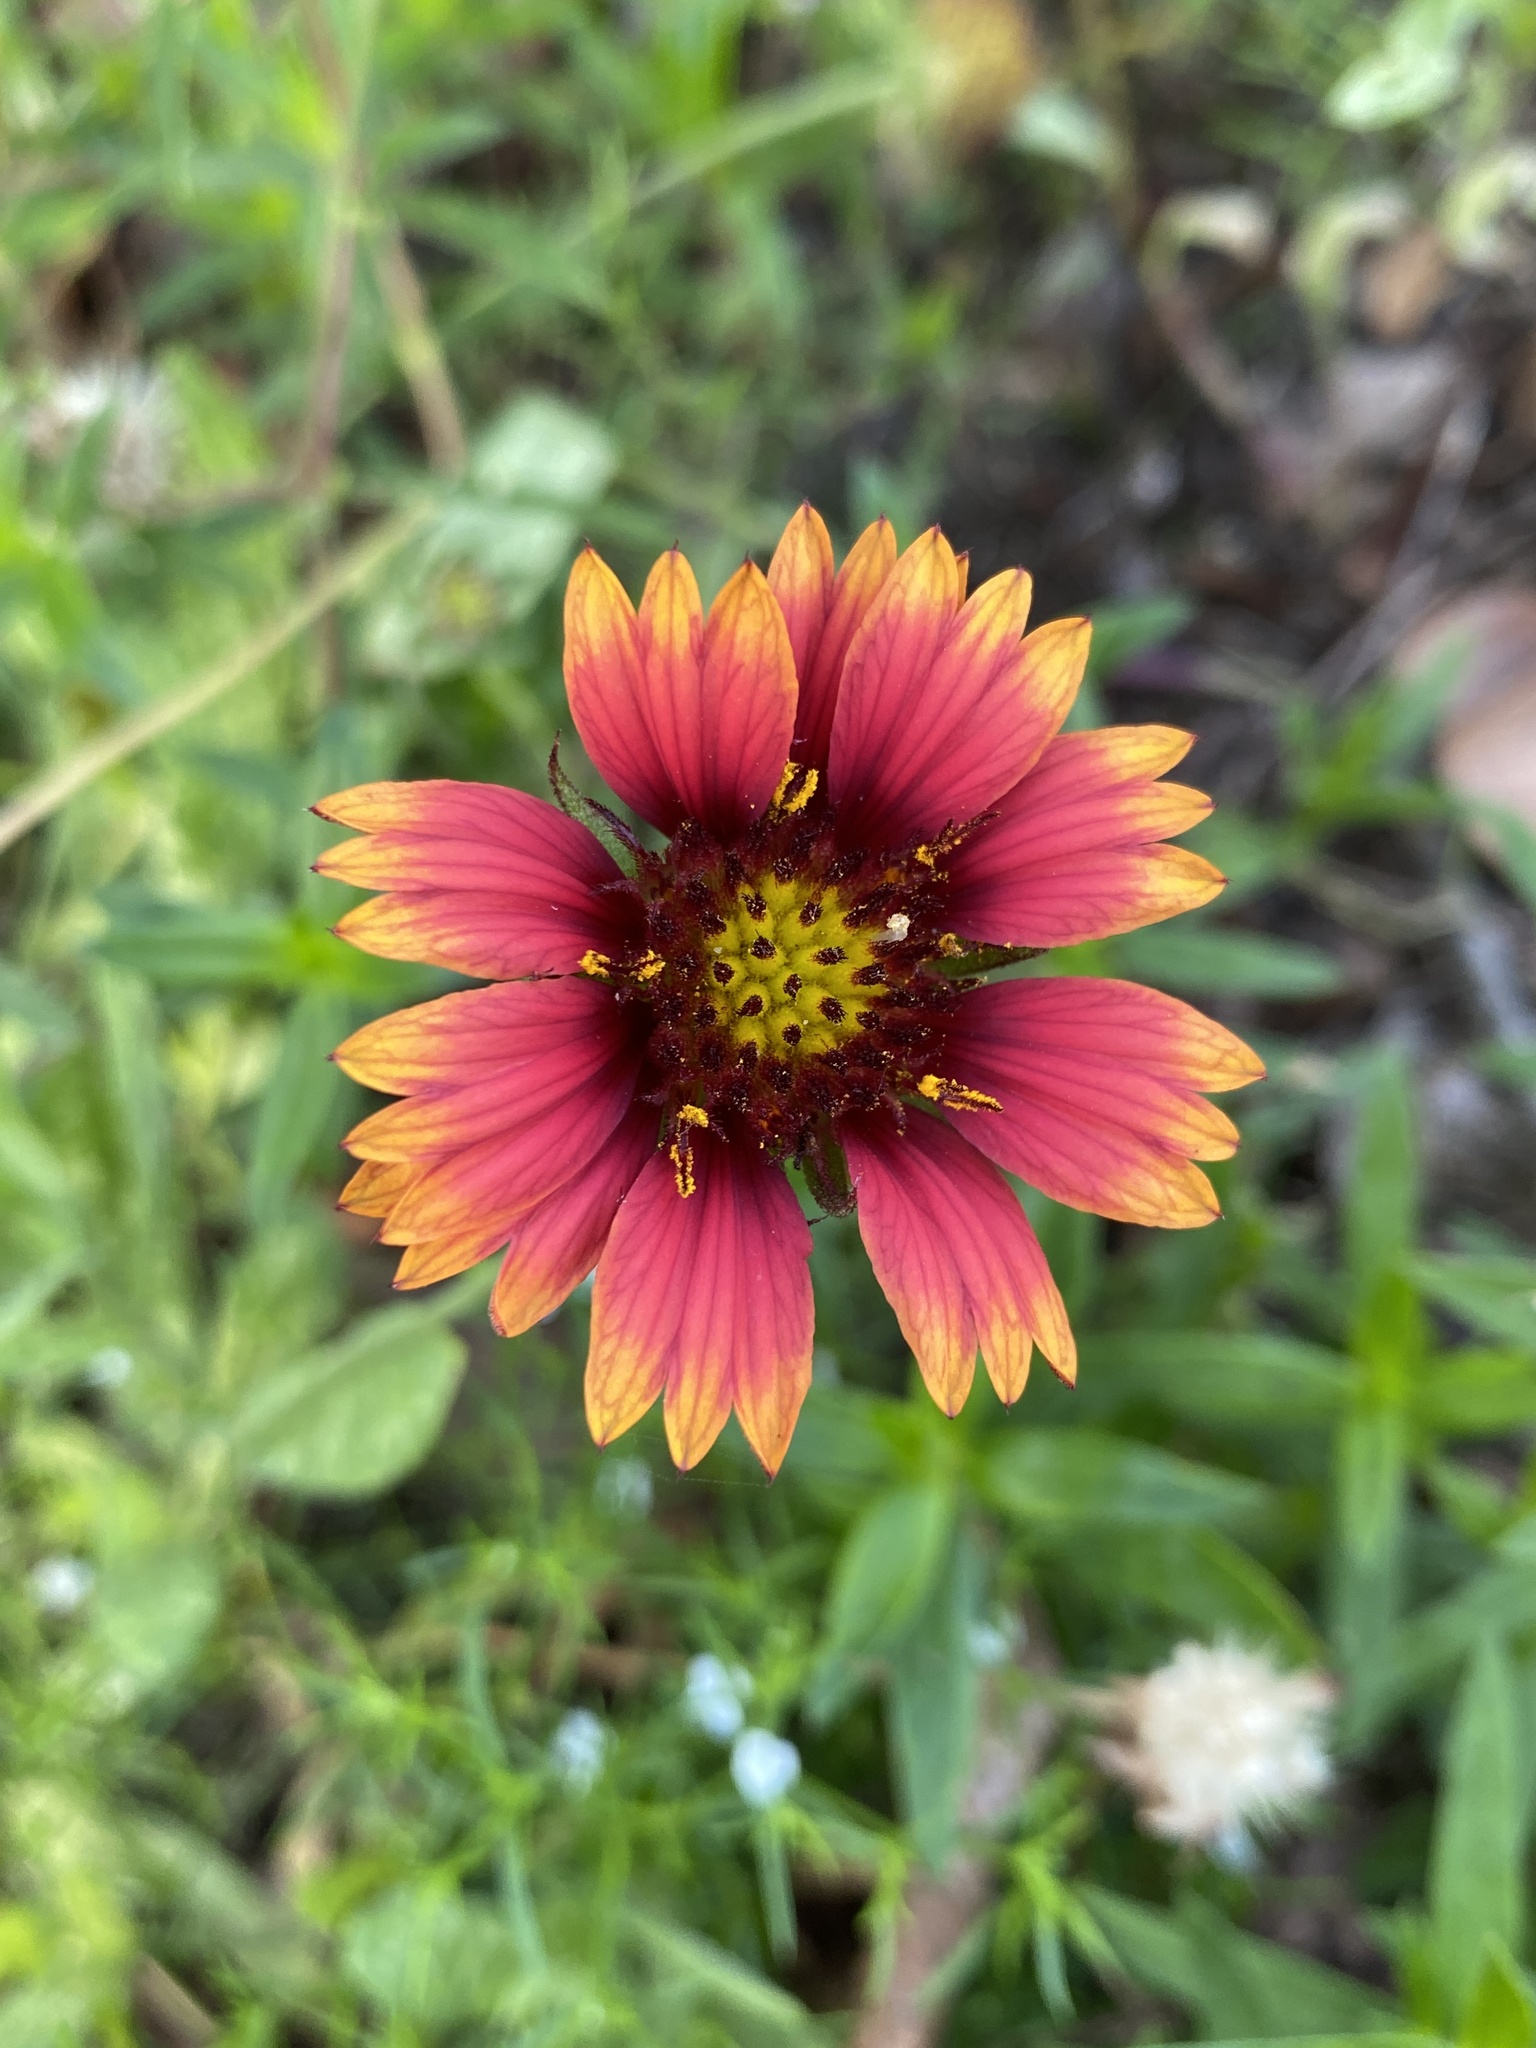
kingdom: Plantae
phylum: Tracheophyta
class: Magnoliopsida
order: Asterales
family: Asteraceae
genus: Gaillardia
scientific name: Gaillardia pulchella
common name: Firewheel
